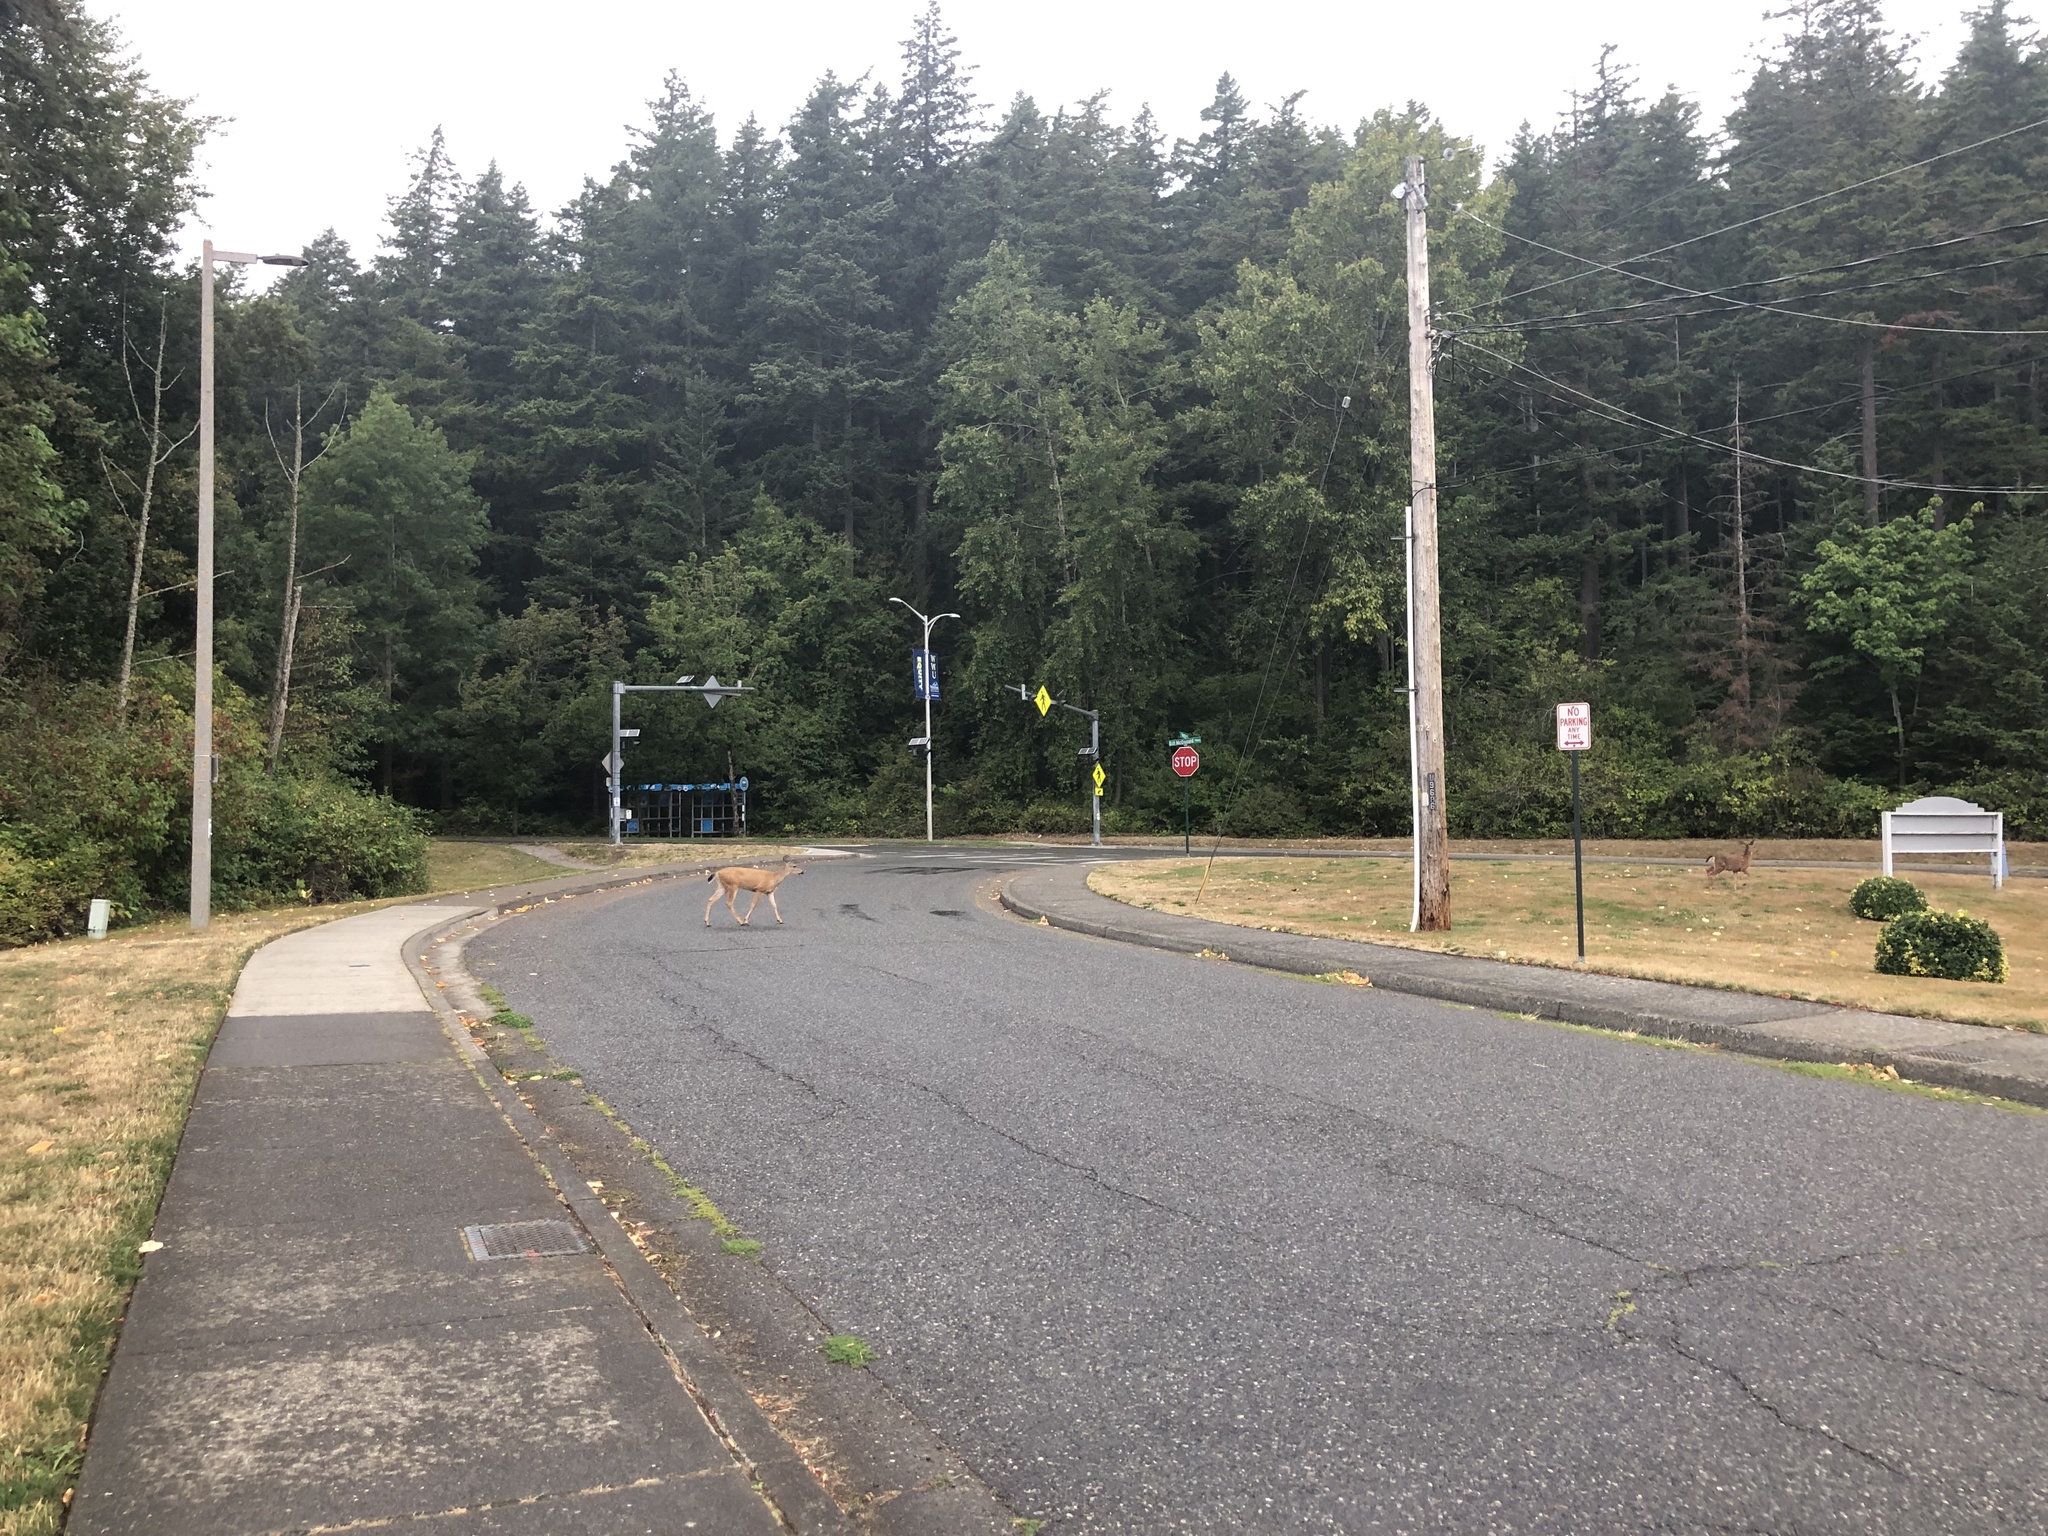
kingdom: Animalia
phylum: Chordata
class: Mammalia
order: Artiodactyla
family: Cervidae
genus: Odocoileus
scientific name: Odocoileus hemionus
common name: Mule deer
